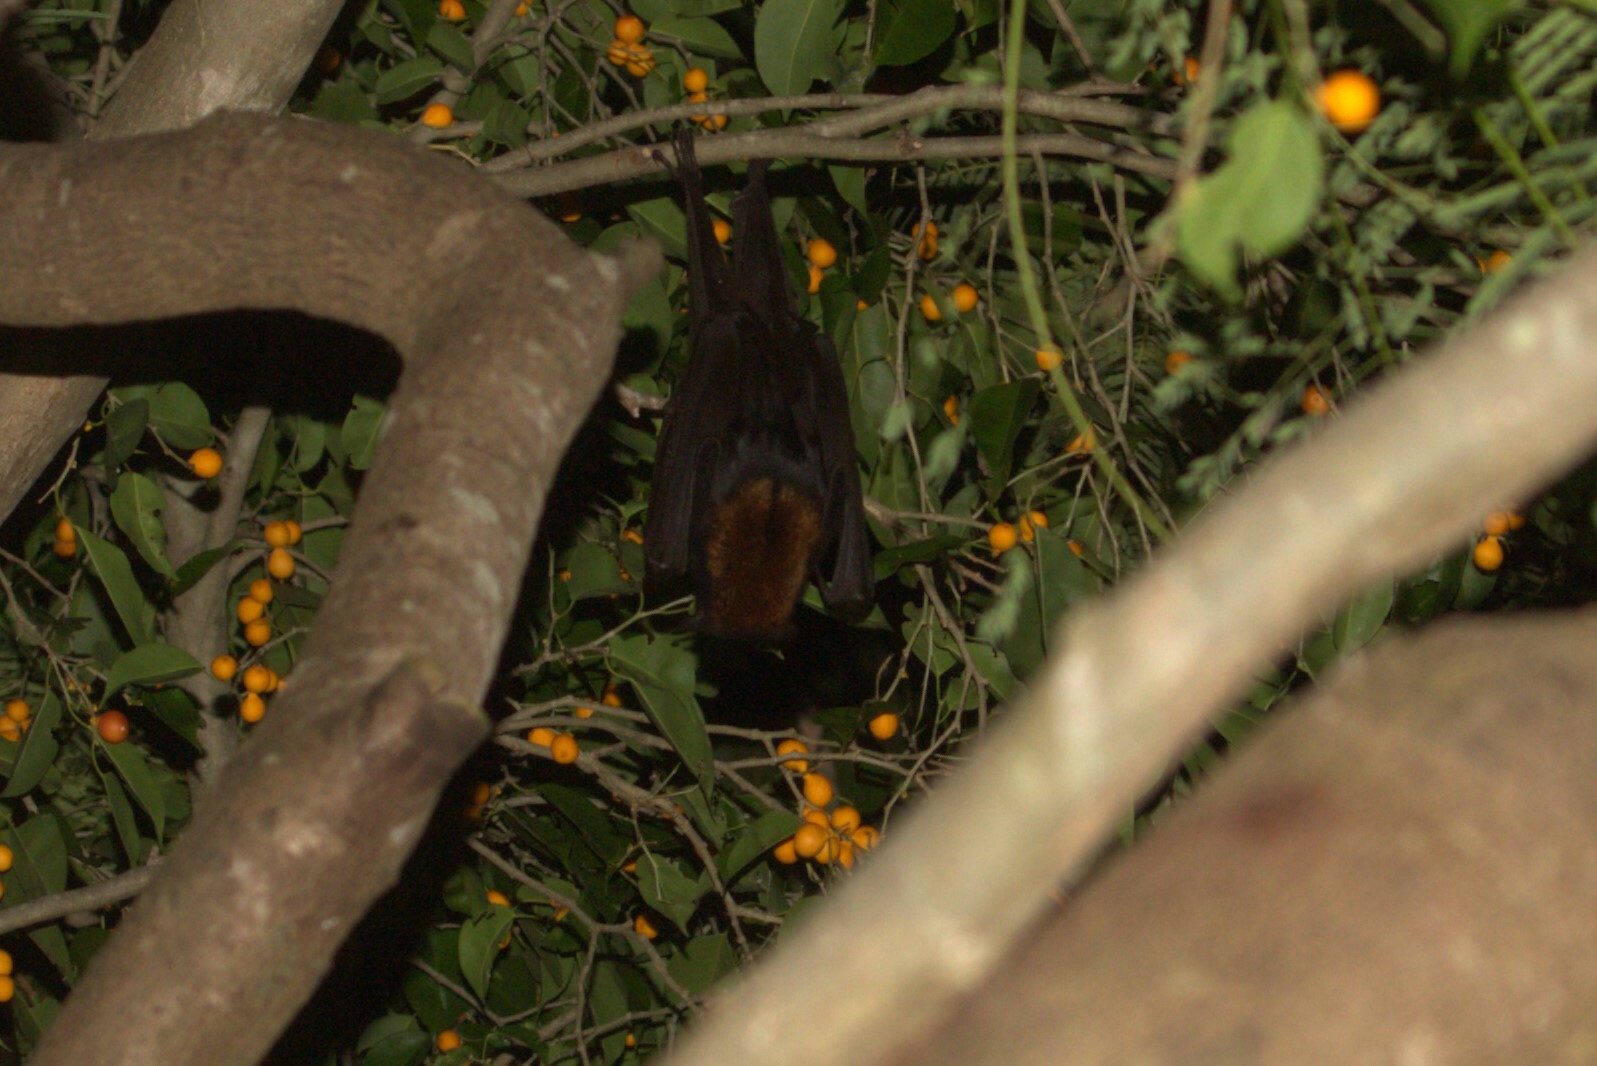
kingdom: Animalia
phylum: Chordata
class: Mammalia
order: Chiroptera
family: Pteropodidae
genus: Pteropus
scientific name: Pteropus alecto
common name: Black flying fox
